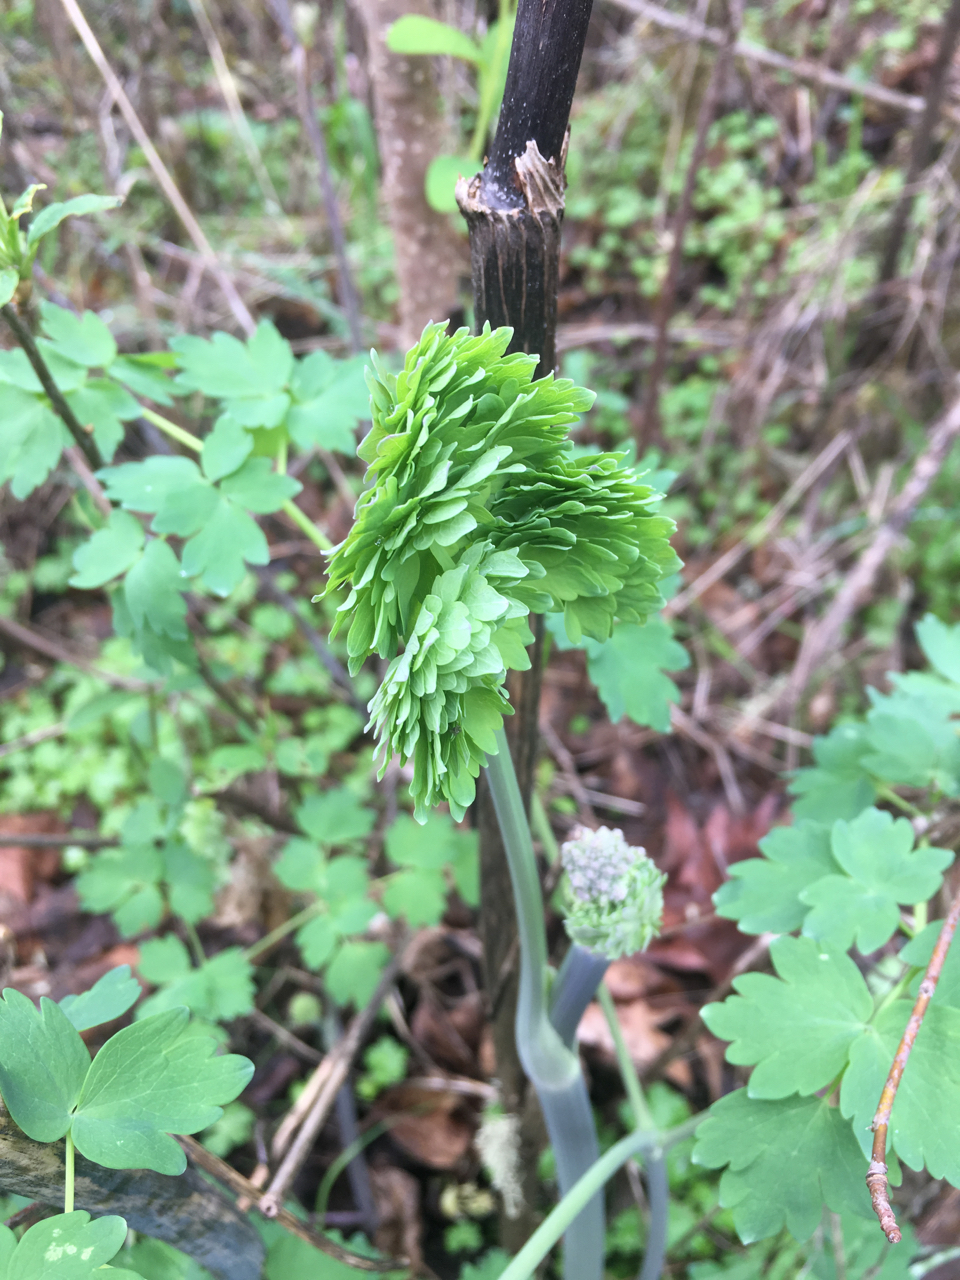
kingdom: Plantae
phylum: Tracheophyta
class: Magnoliopsida
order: Ranunculales
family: Ranunculaceae
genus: Thalictrum
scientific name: Thalictrum fendleri
